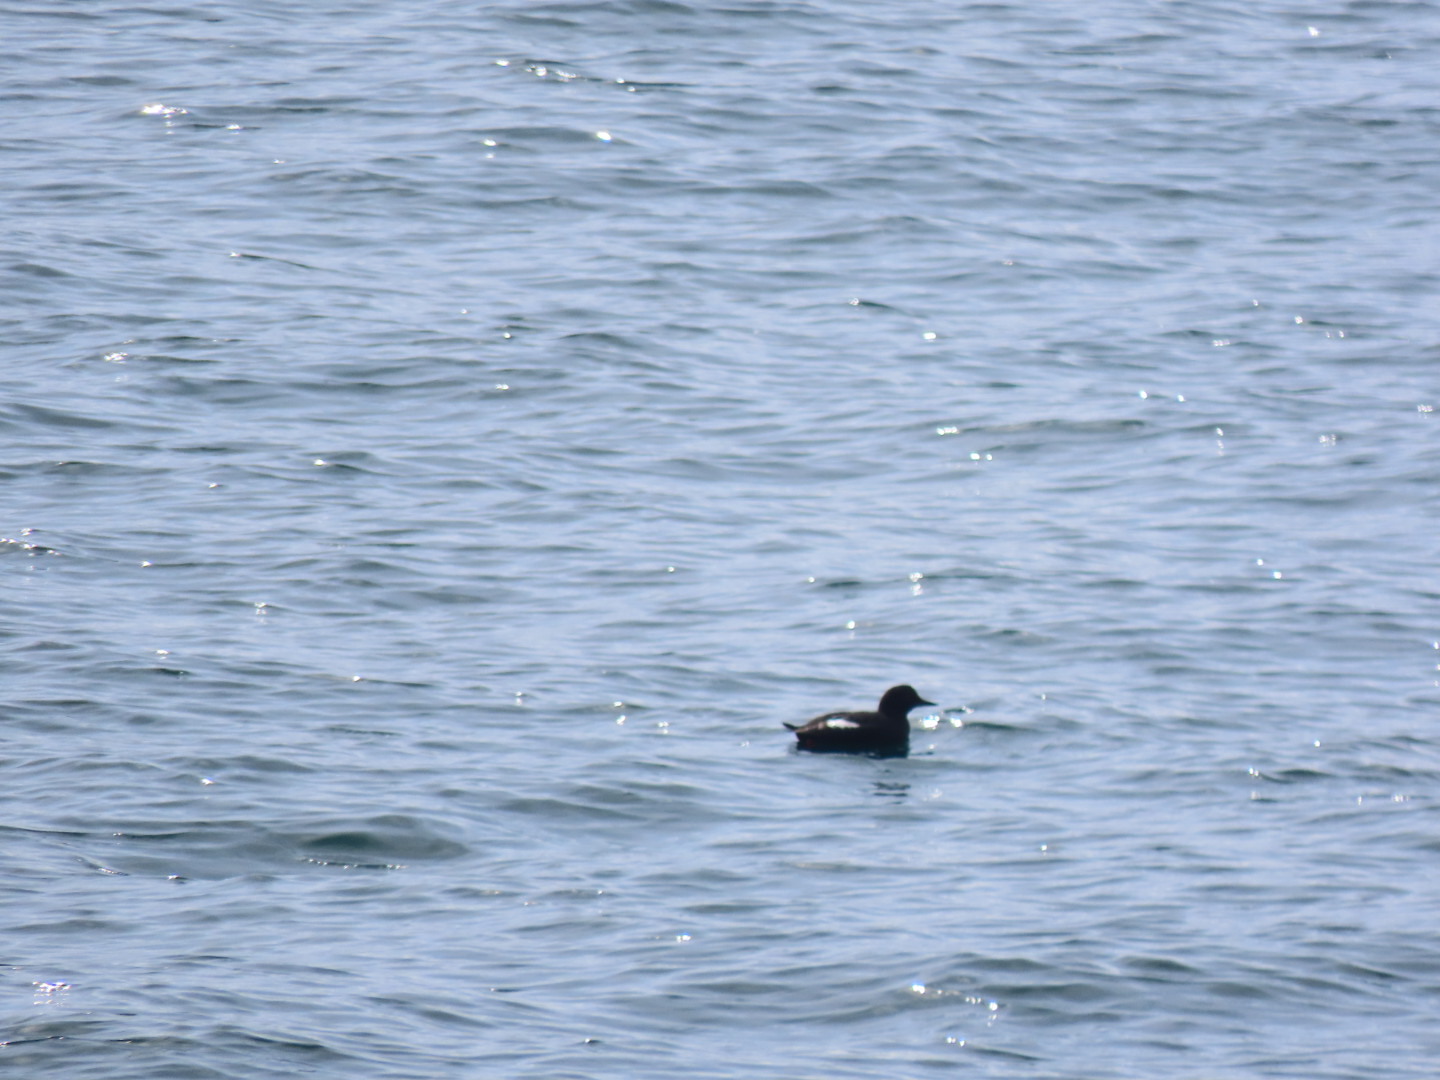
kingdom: Animalia
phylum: Chordata
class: Aves
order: Charadriiformes
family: Alcidae
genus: Cepphus
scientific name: Cepphus columba
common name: Pigeon guillemot
